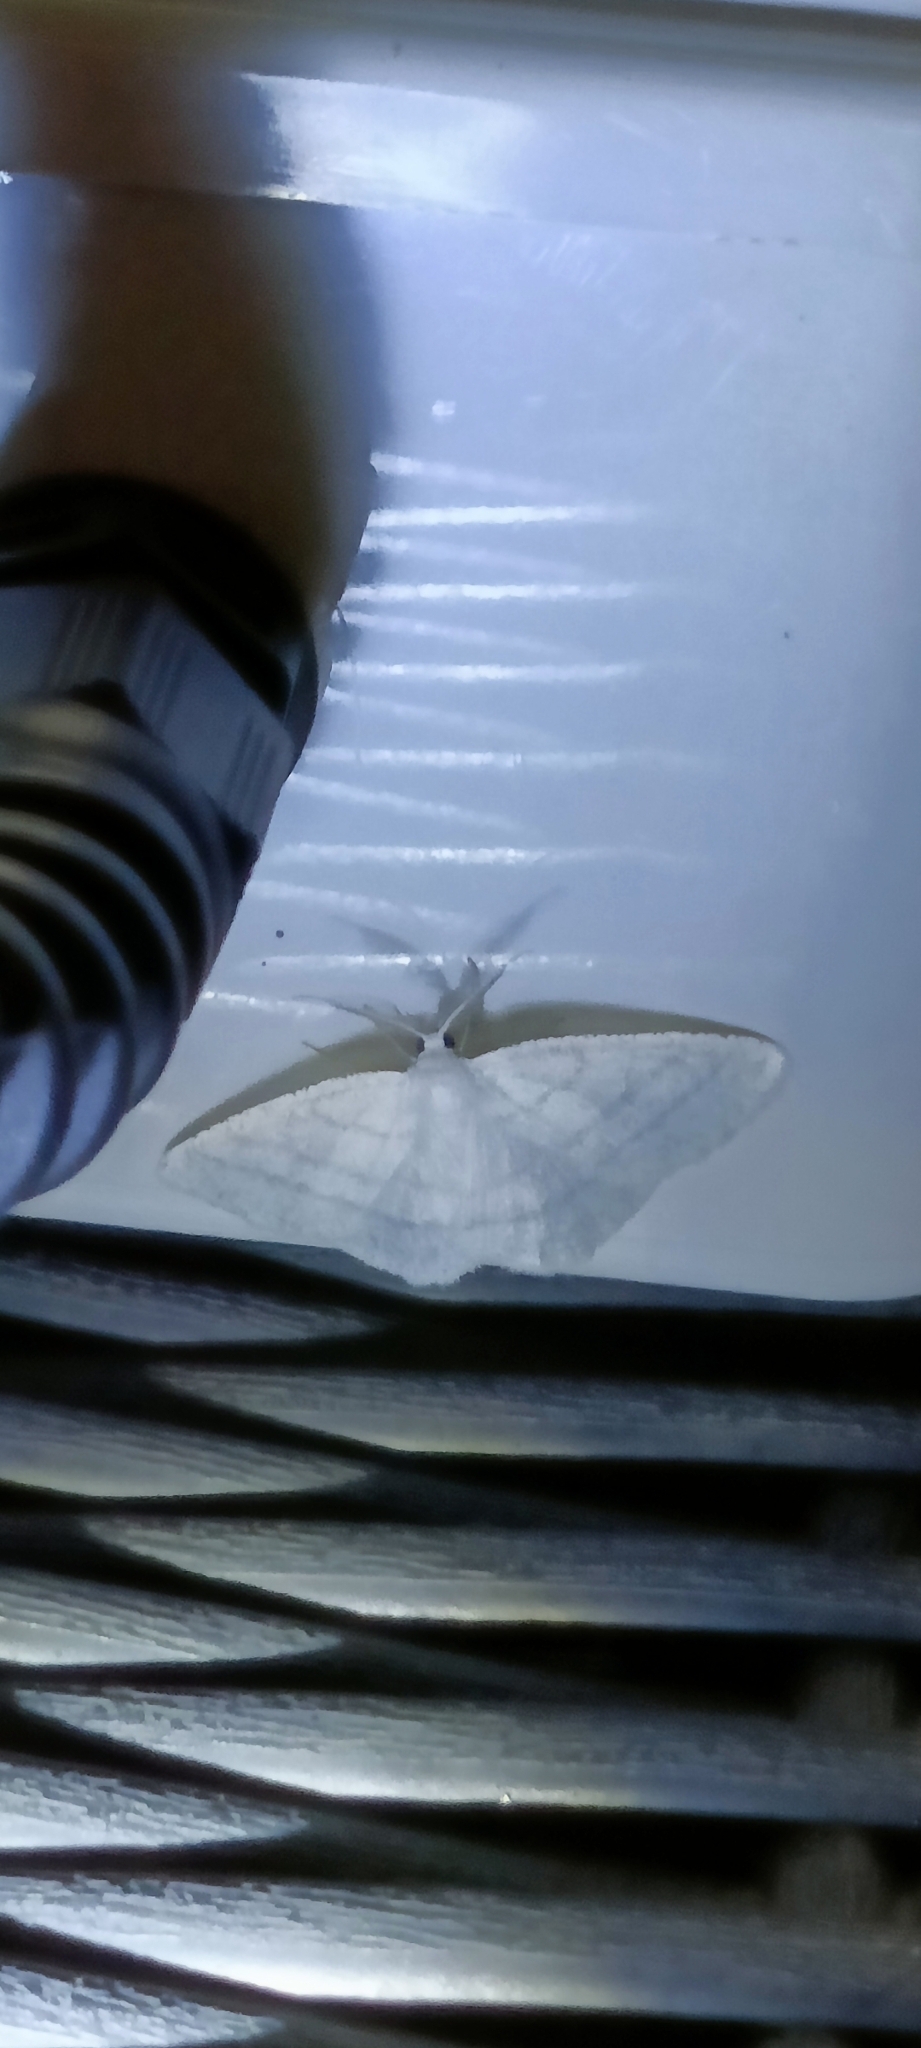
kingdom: Animalia
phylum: Arthropoda
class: Insecta
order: Lepidoptera
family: Geometridae
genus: Cabera
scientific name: Cabera pusaria
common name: Common white wave
